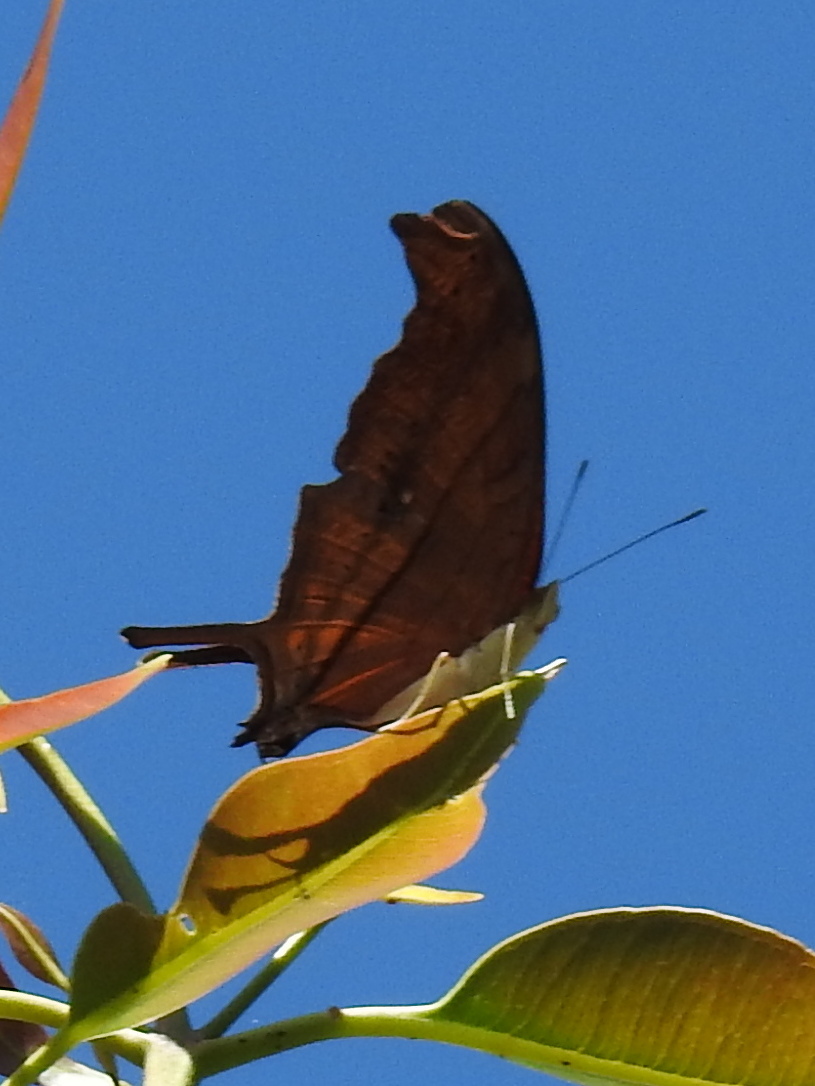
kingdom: Animalia
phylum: Arthropoda
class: Insecta
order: Lepidoptera
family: Nymphalidae
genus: Marpesia
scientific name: Marpesia petreus
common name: Red dagger wing
